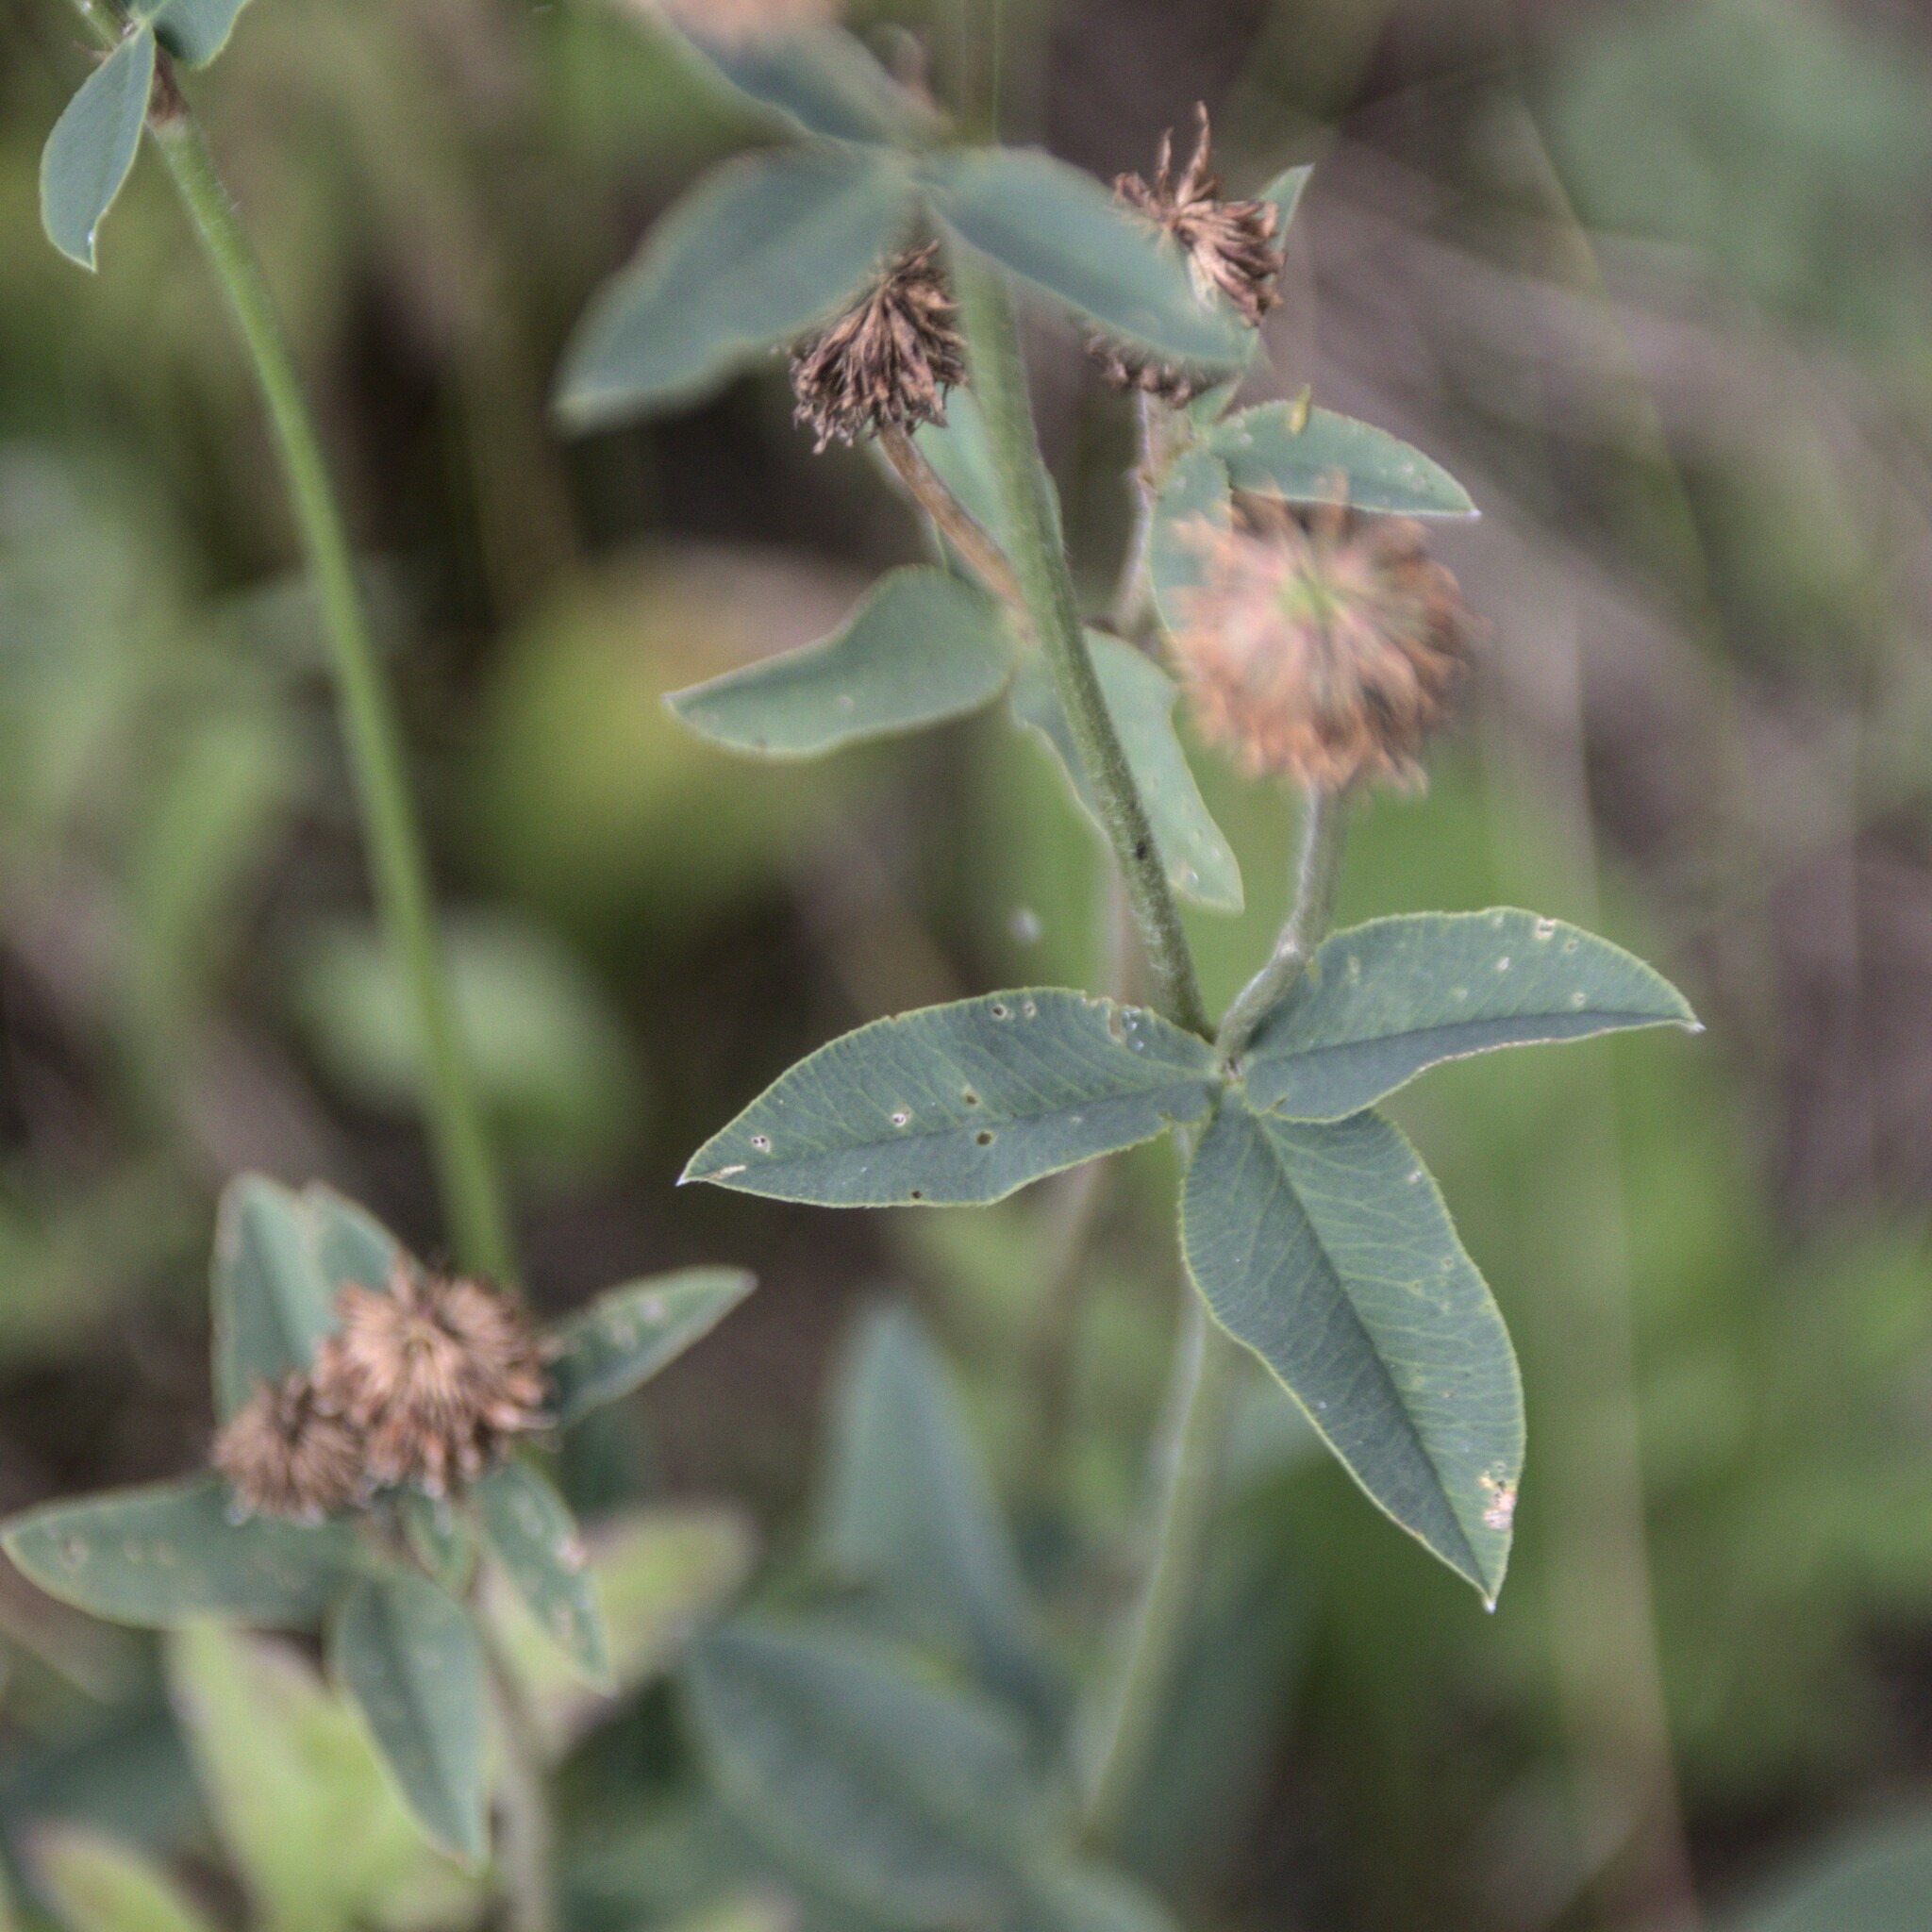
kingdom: Plantae
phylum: Tracheophyta
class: Magnoliopsida
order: Fabales
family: Fabaceae
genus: Trifolium
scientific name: Trifolium montanum
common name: Mountain clover
